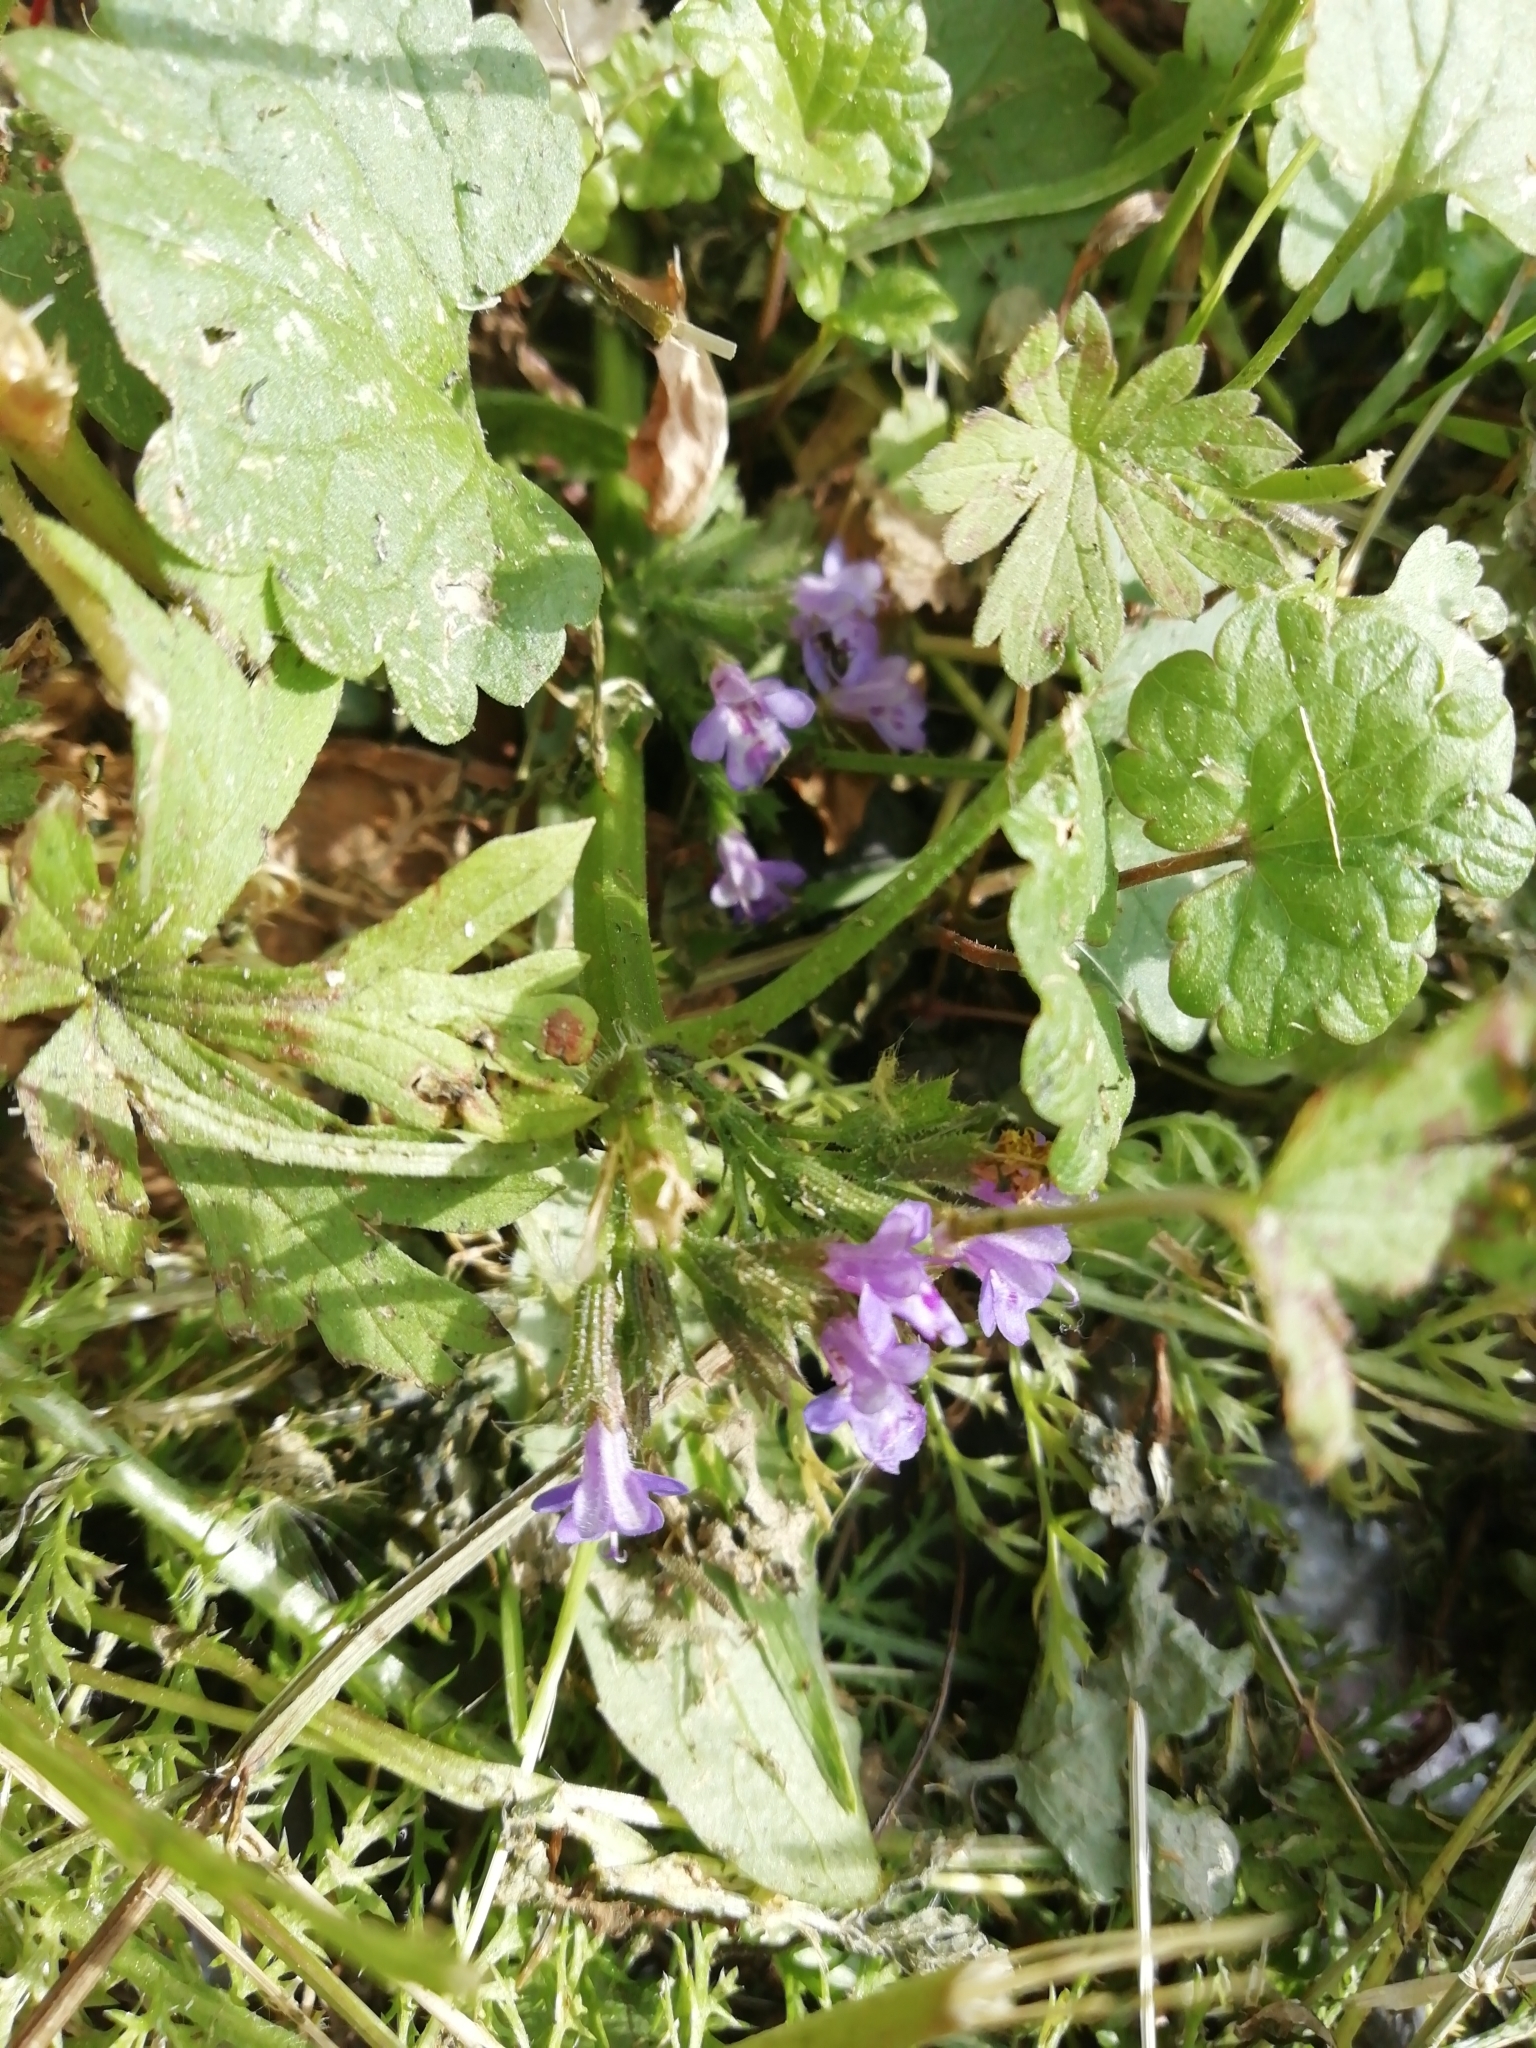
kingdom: Plantae
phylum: Tracheophyta
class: Magnoliopsida
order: Lamiales
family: Lamiaceae
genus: Glechoma
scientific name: Glechoma hederacea
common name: Ground ivy
